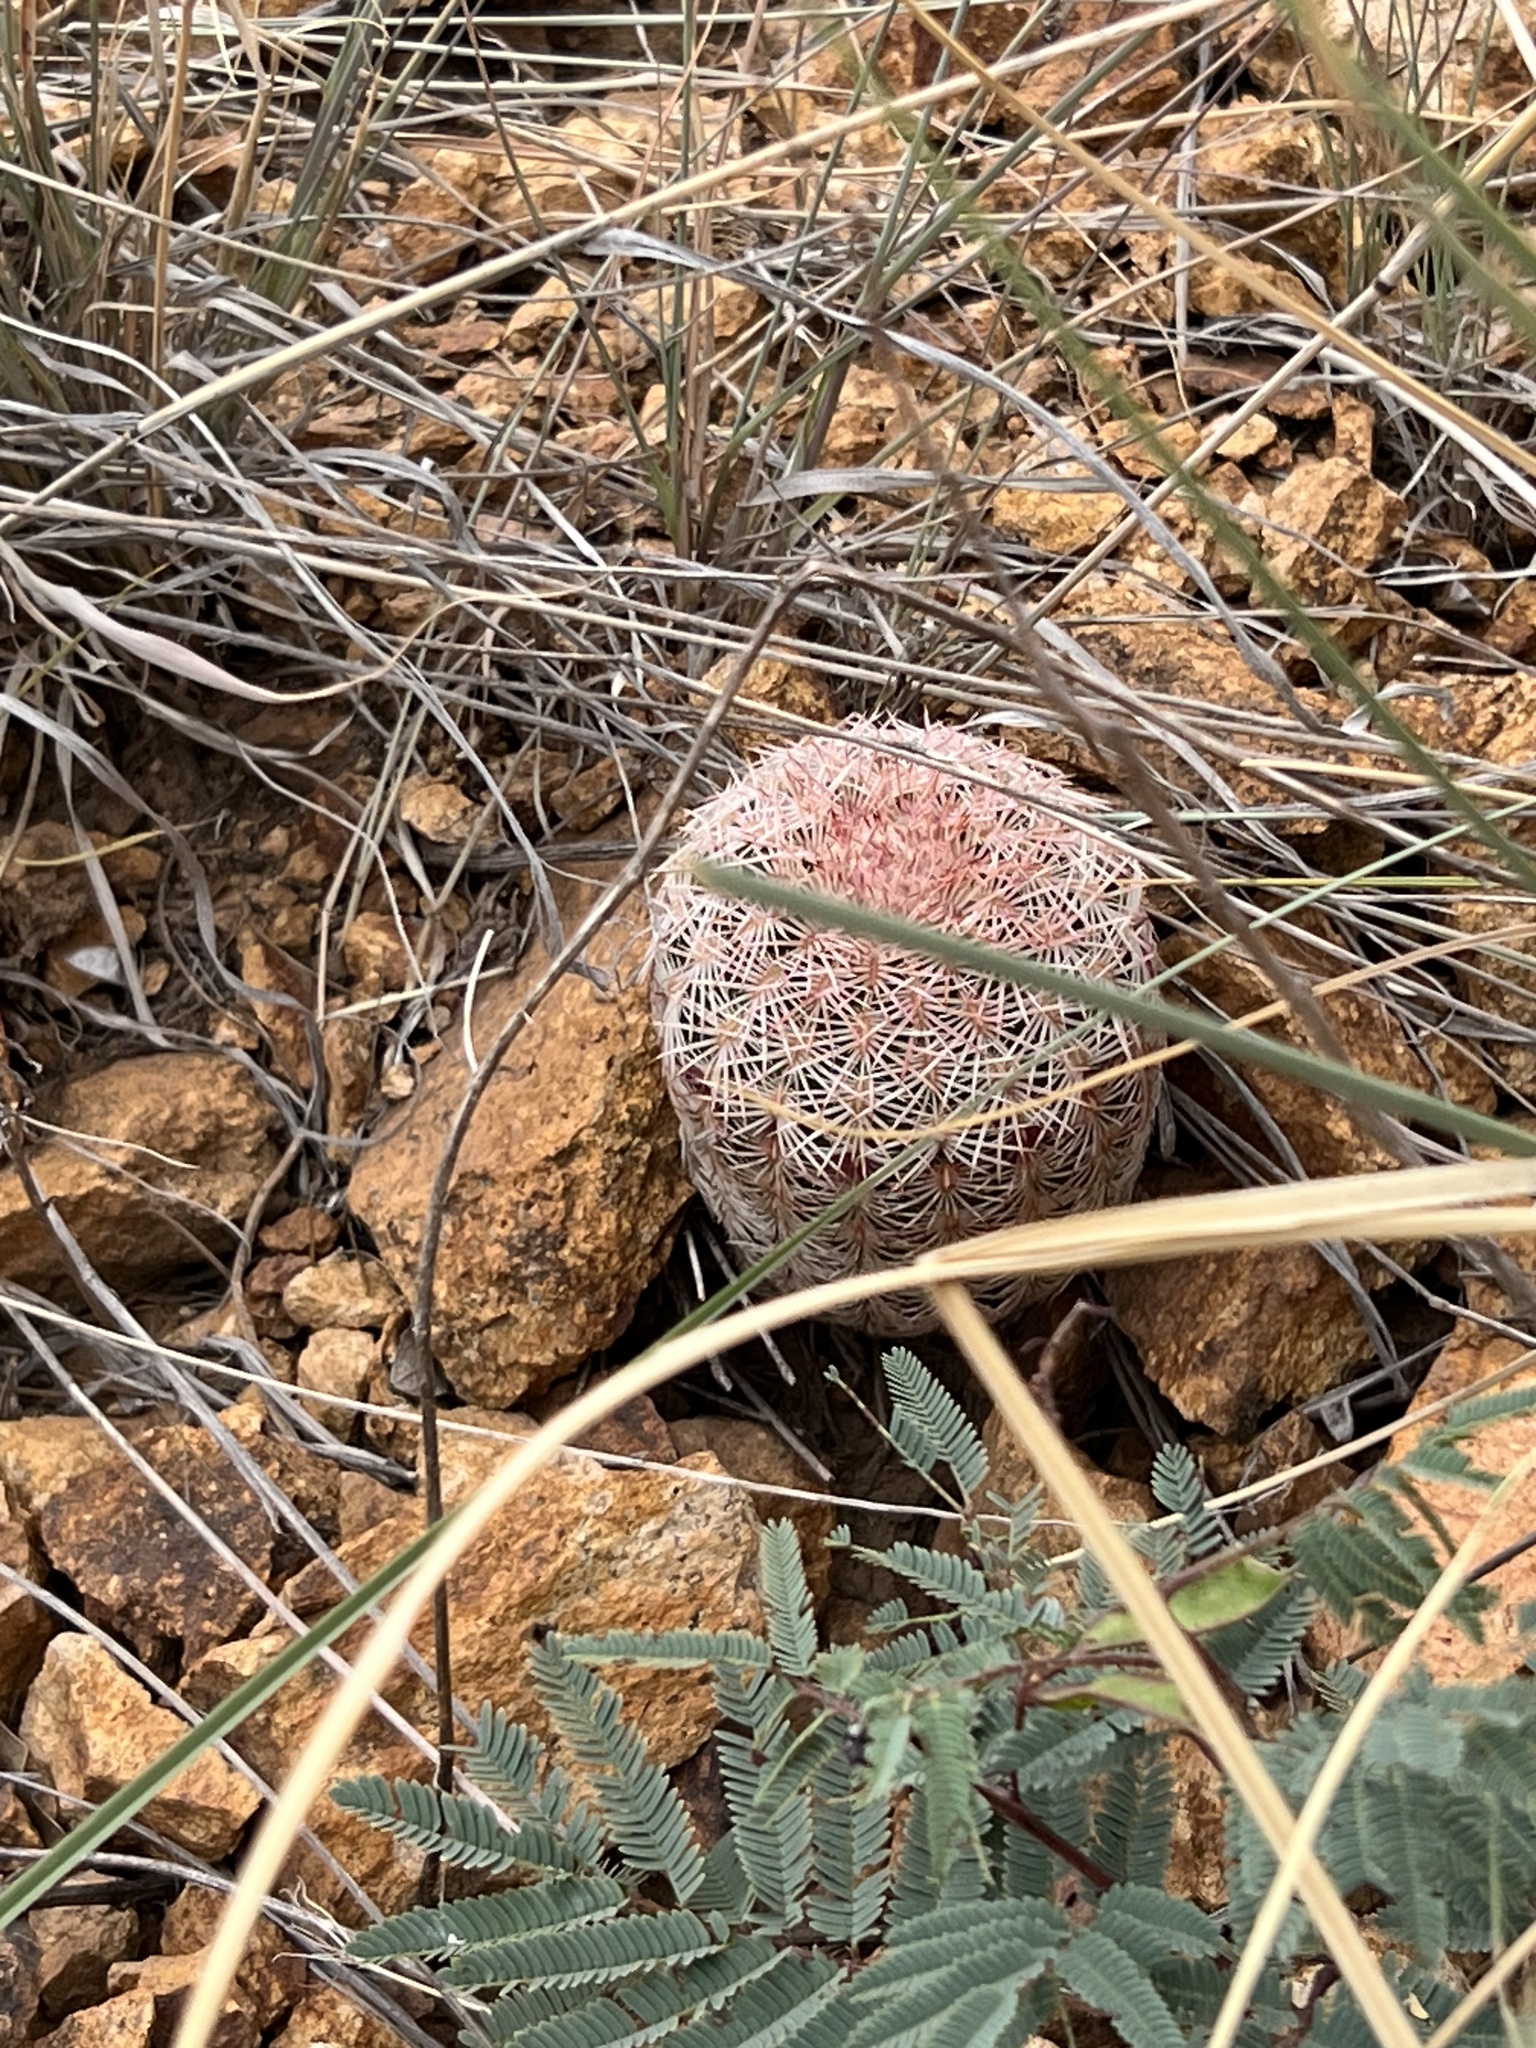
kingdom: Plantae
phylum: Tracheophyta
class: Magnoliopsida
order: Caryophyllales
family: Cactaceae
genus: Echinocereus
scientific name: Echinocereus rigidissimus
